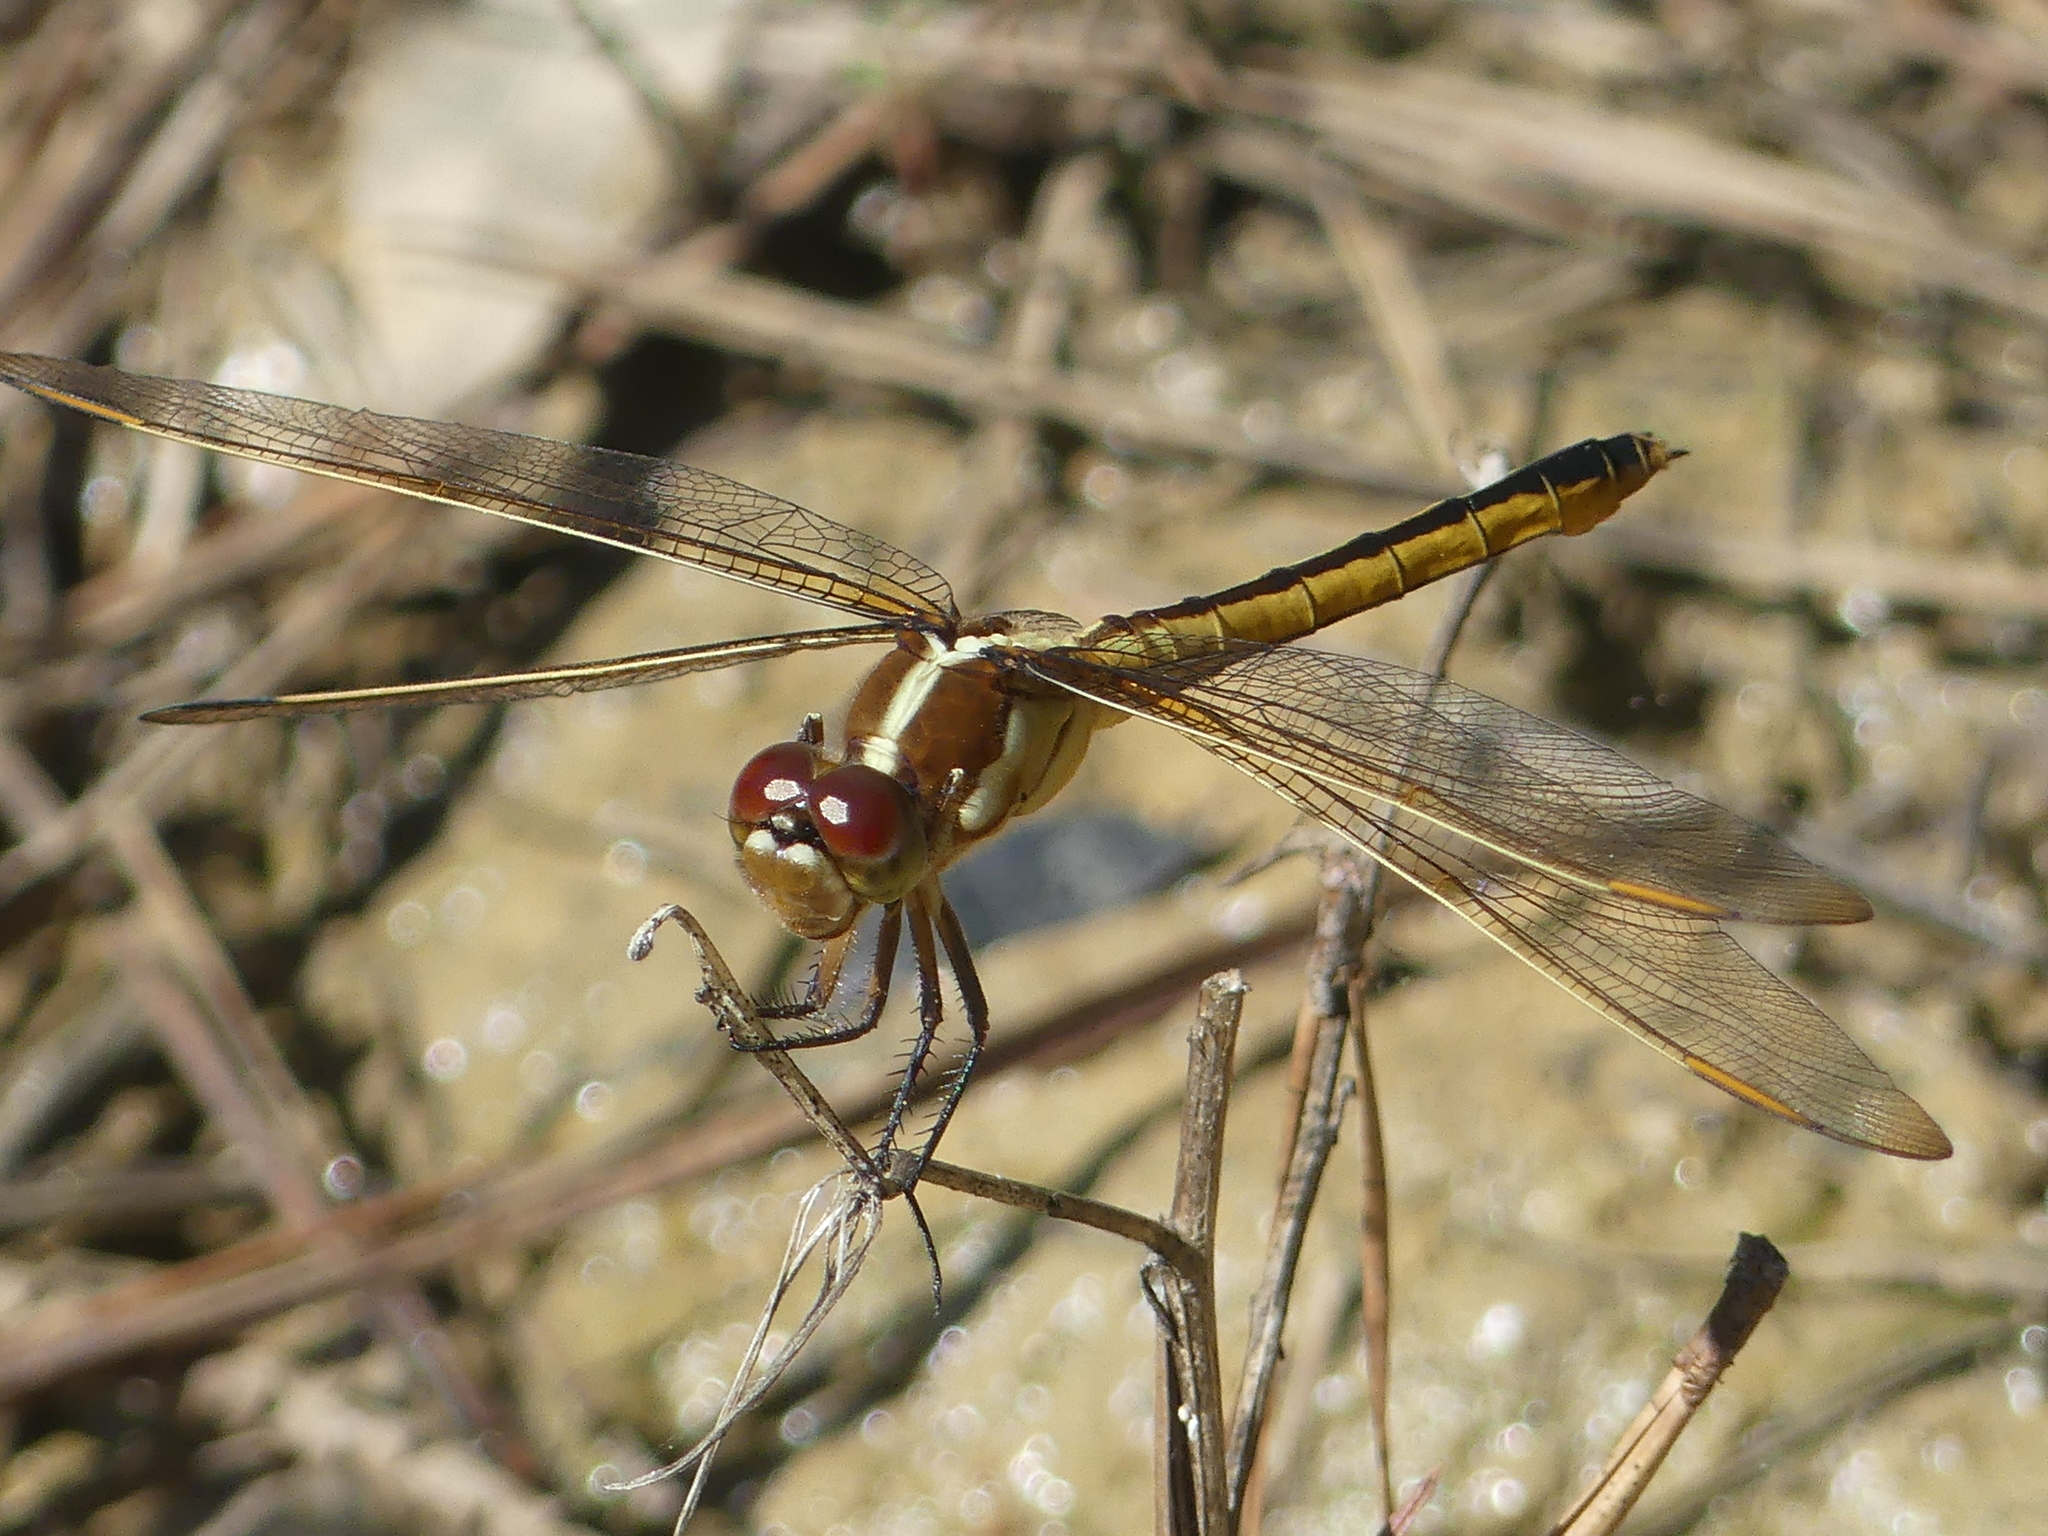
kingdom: Animalia
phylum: Arthropoda
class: Insecta
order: Odonata
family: Libellulidae
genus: Libellula
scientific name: Libellula auripennis
